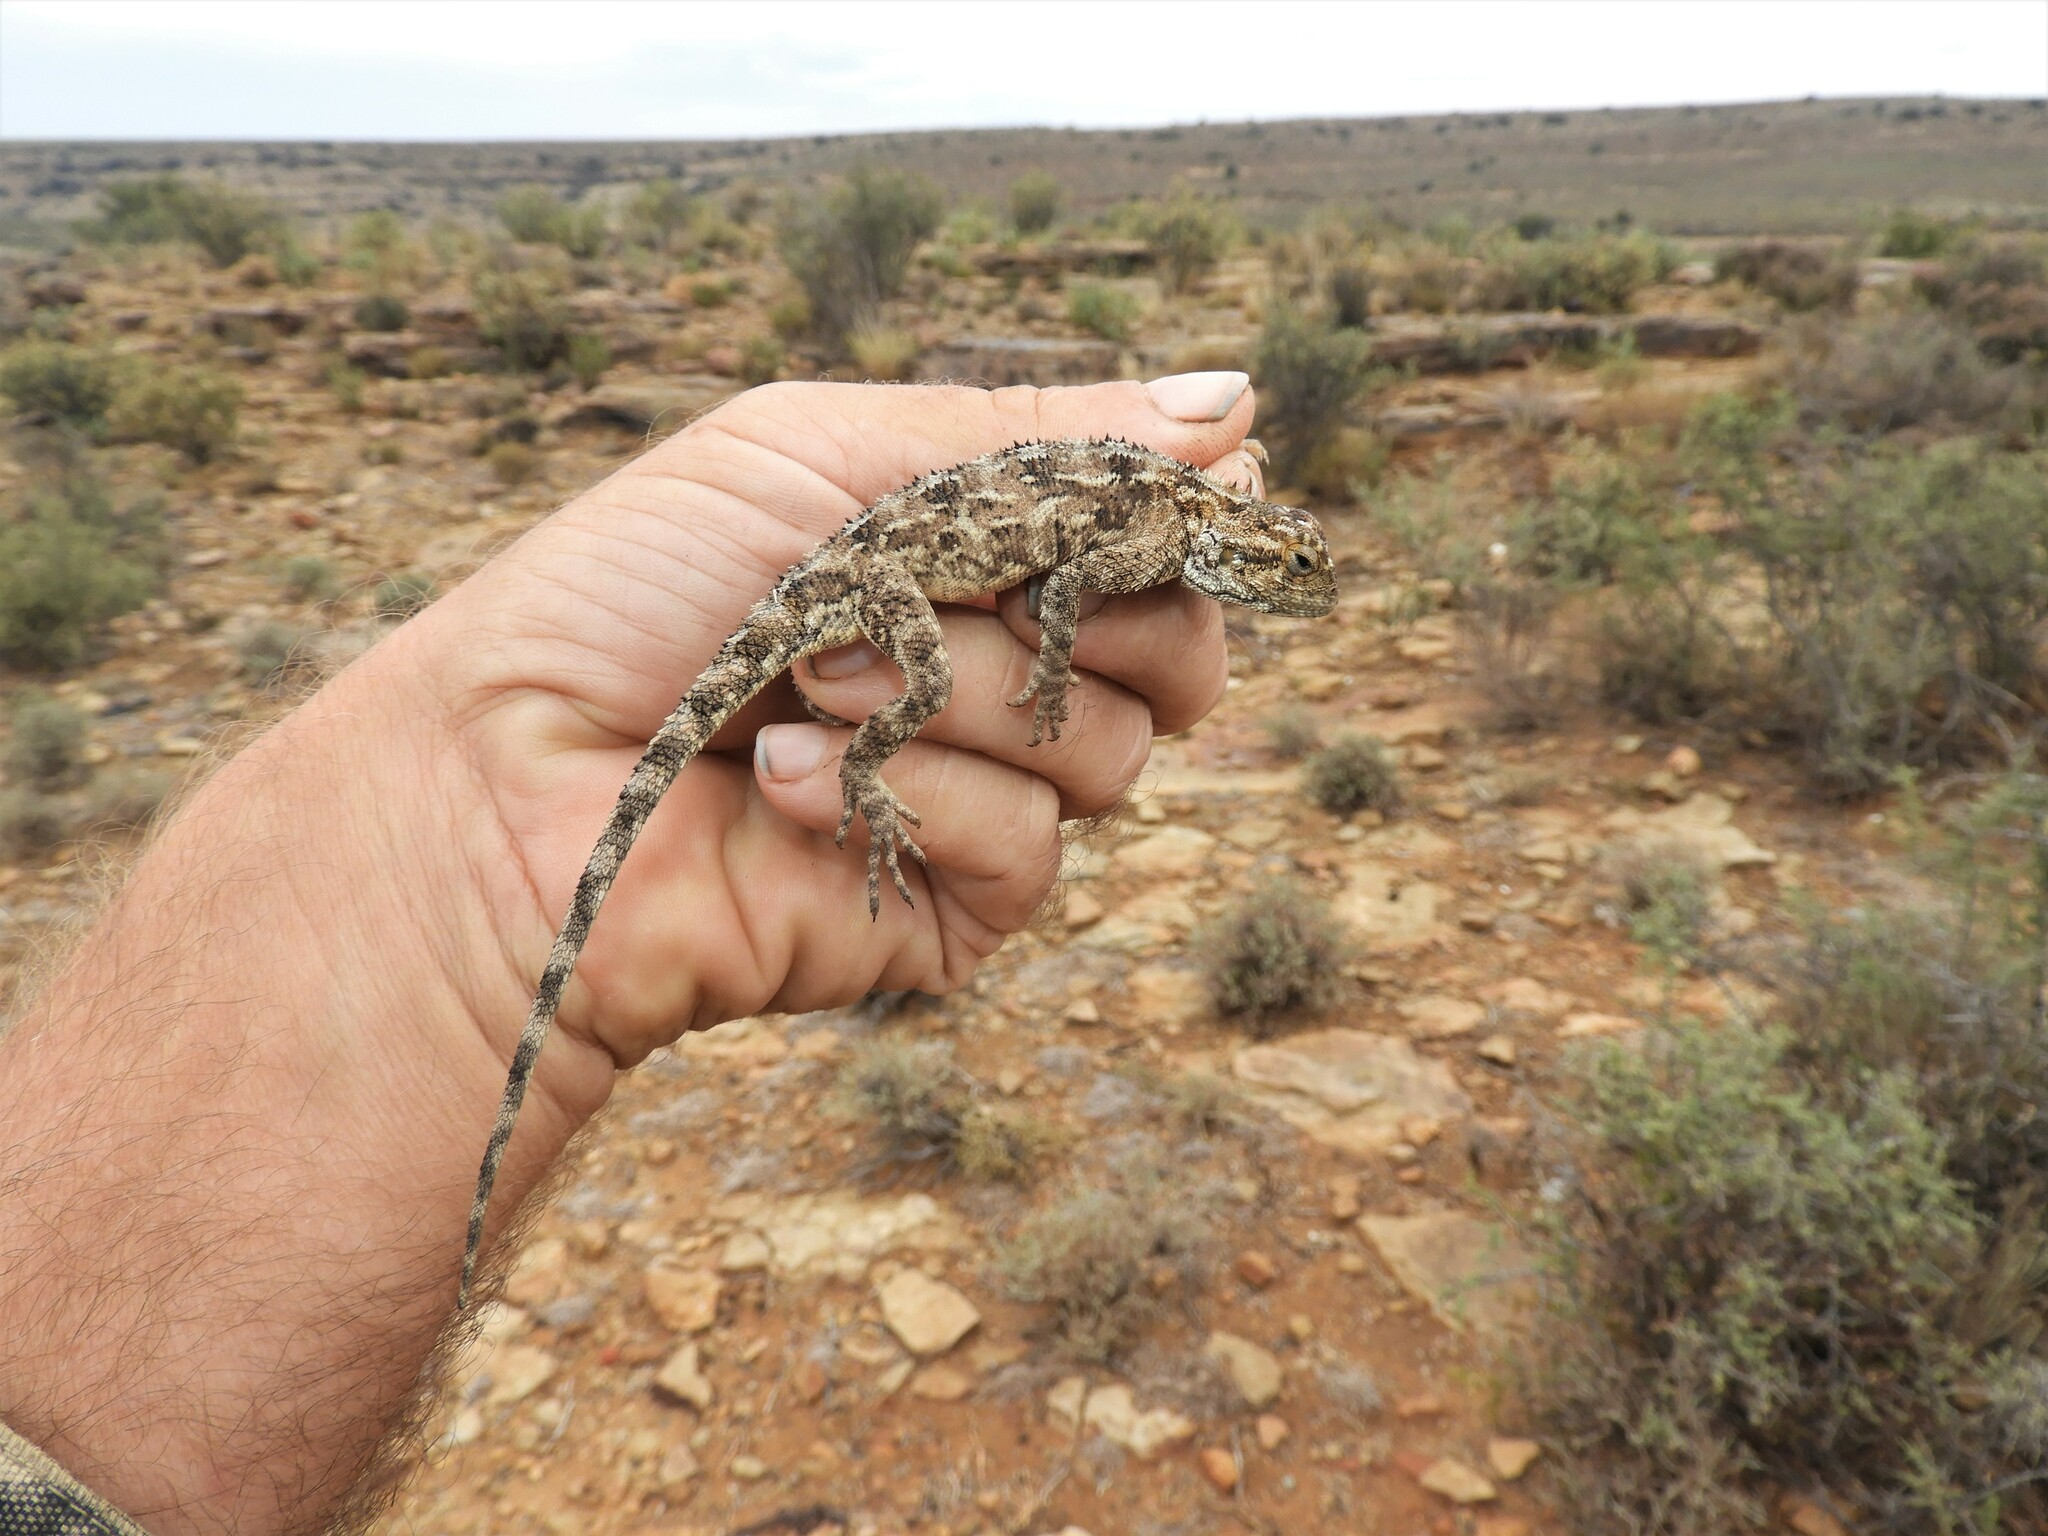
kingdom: Animalia
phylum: Chordata
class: Squamata
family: Agamidae
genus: Agama
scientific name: Agama aculeata
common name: Common ground agama
